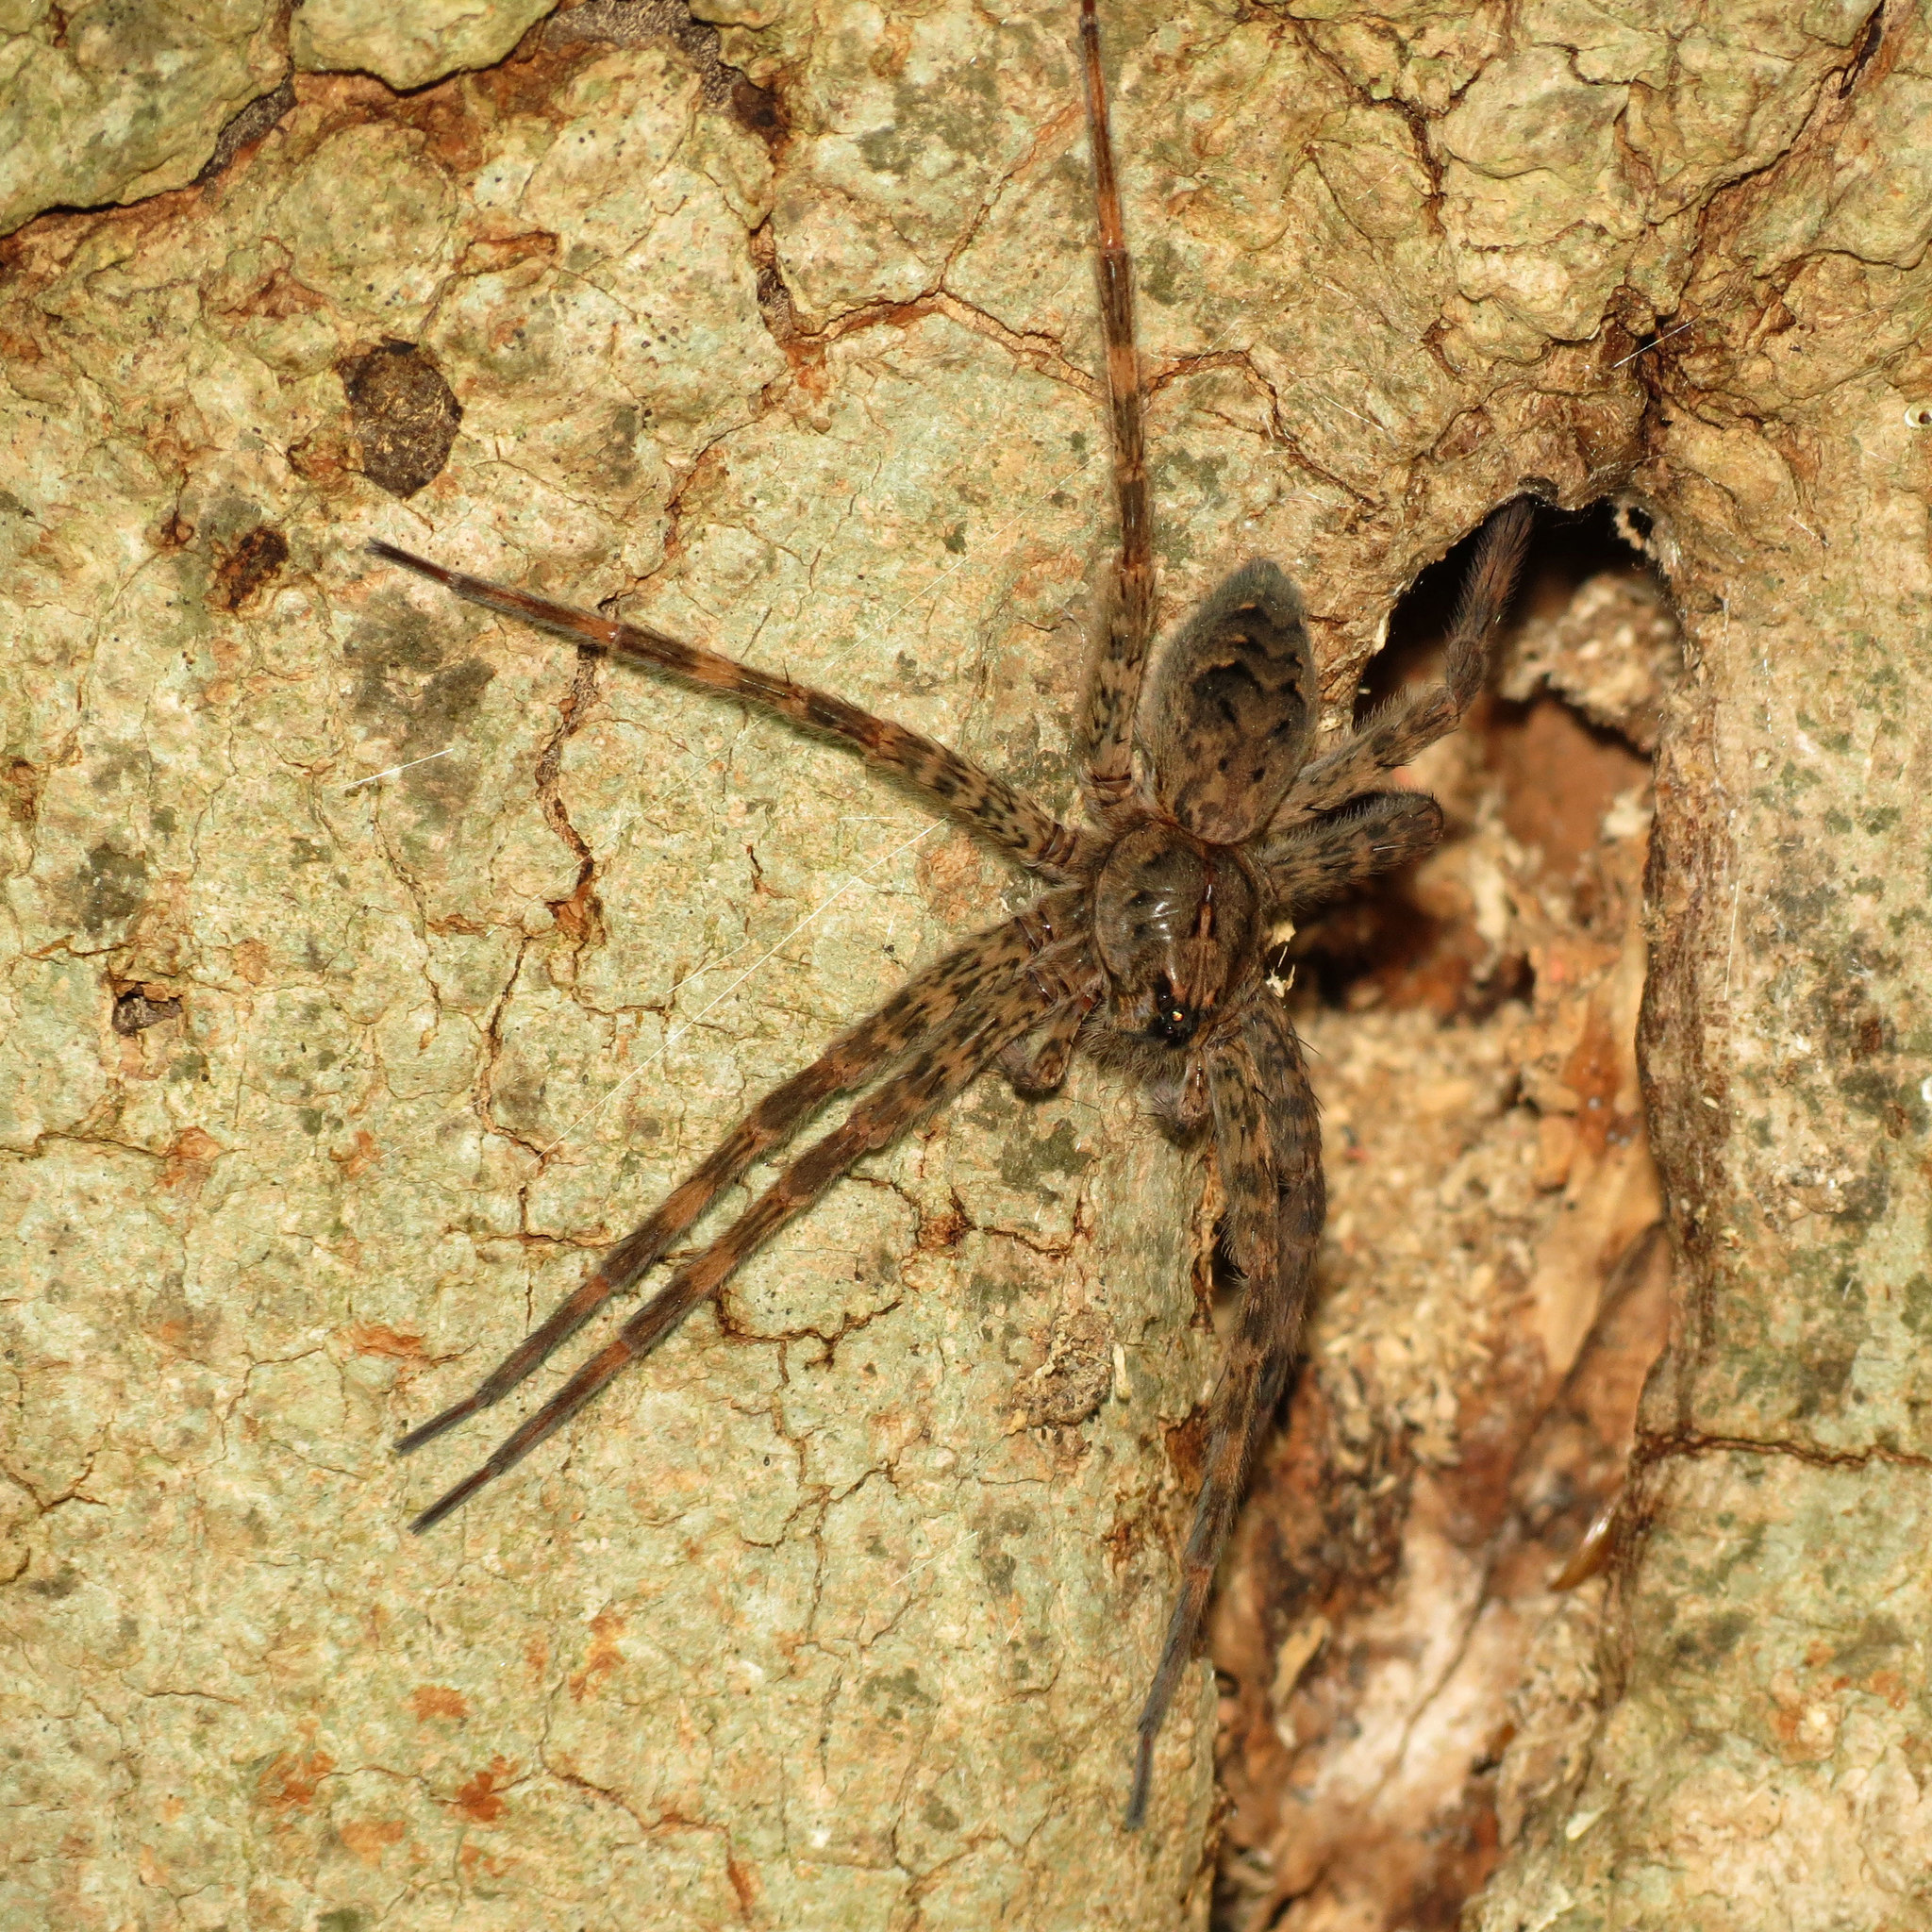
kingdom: Animalia
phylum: Arthropoda
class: Arachnida
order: Araneae
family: Pisauridae
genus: Dolomedes
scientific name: Dolomedes tenebrosus
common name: Dark fishing spider
